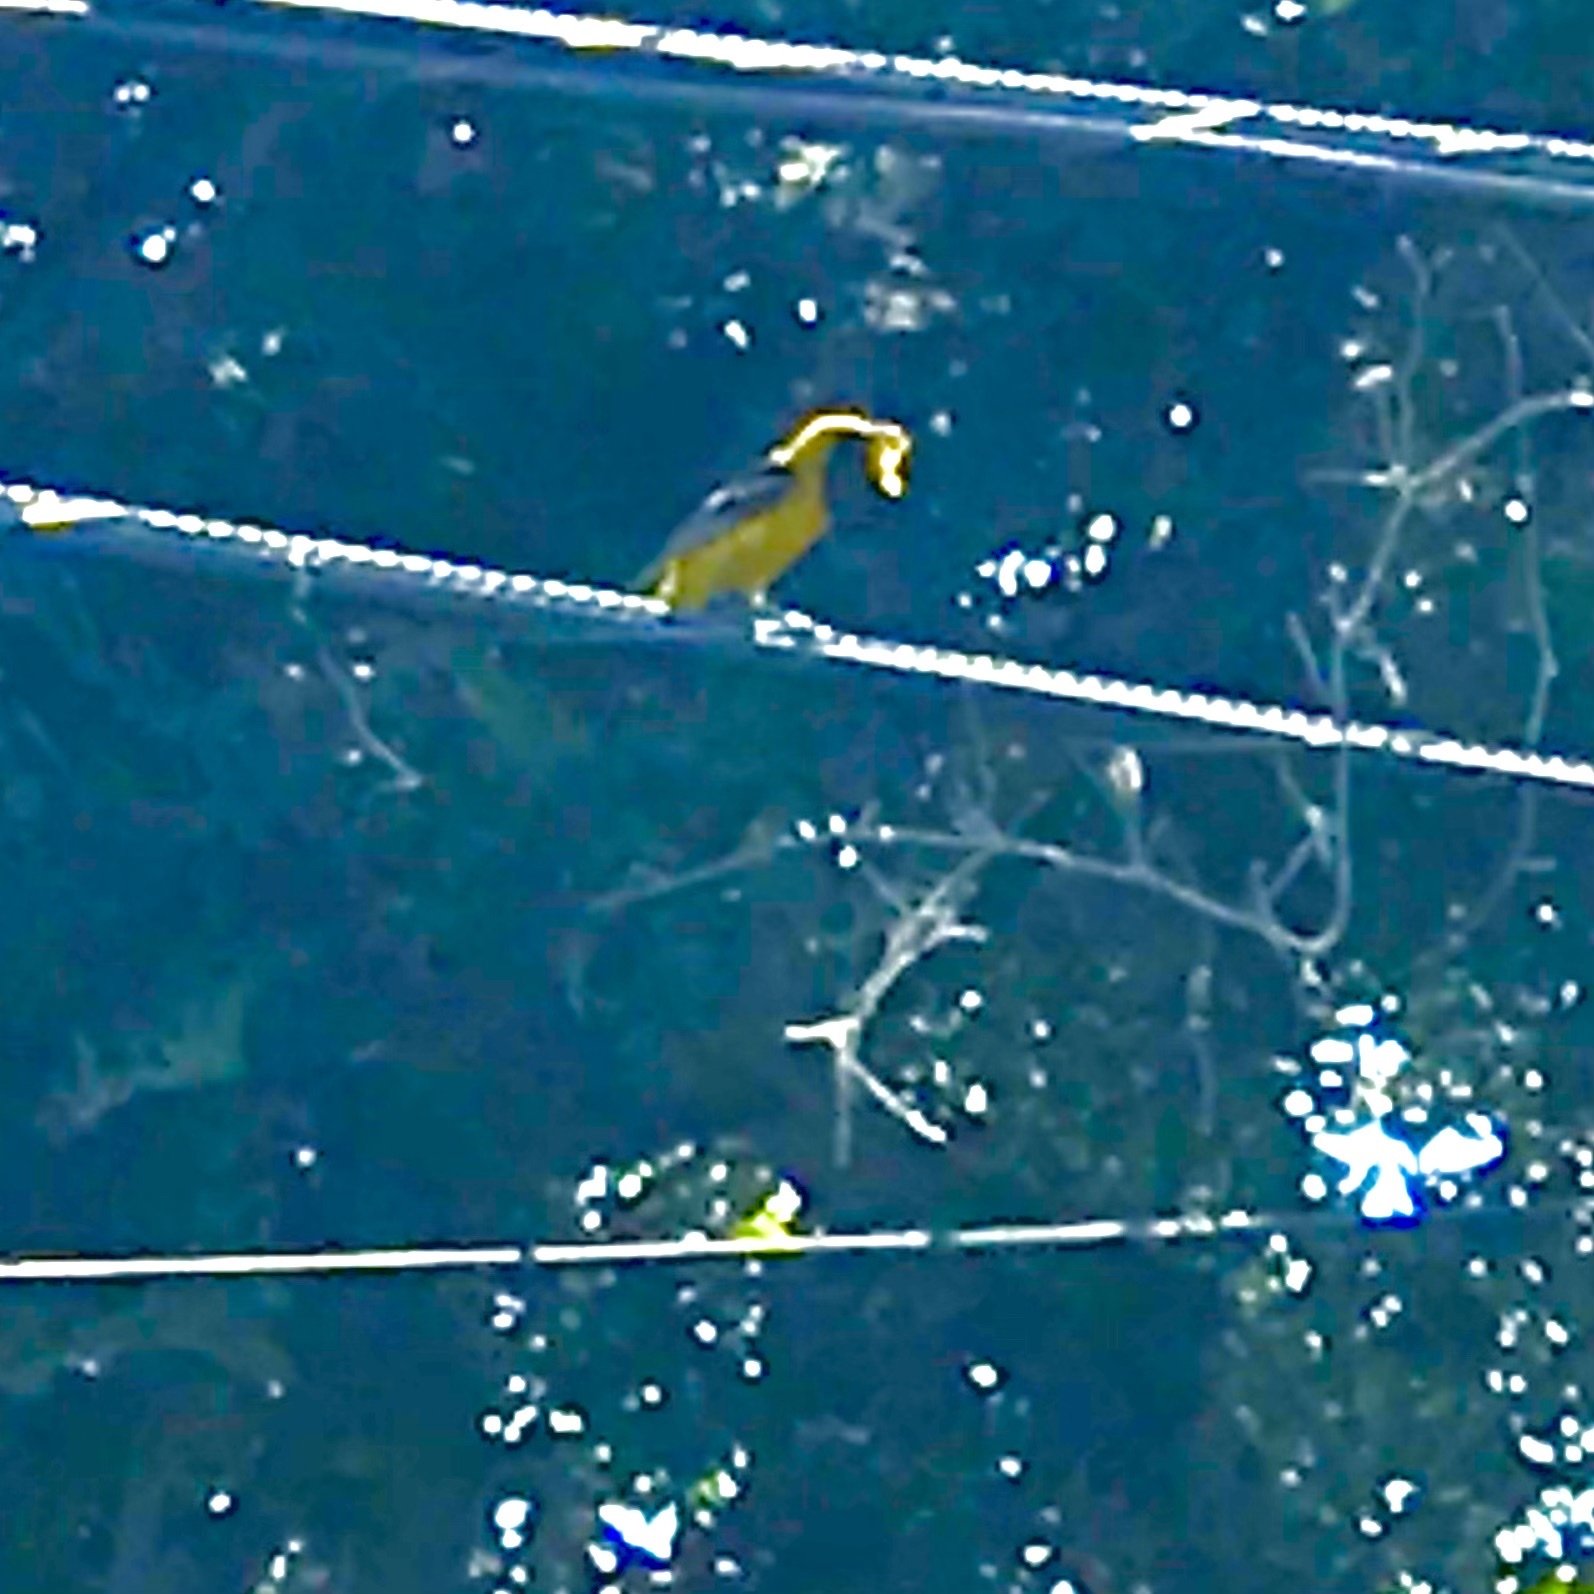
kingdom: Animalia
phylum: Chordata
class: Aves
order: Passeriformes
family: Icteridae
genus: Icterus
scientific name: Icterus cucullatus
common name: Hooded oriole
